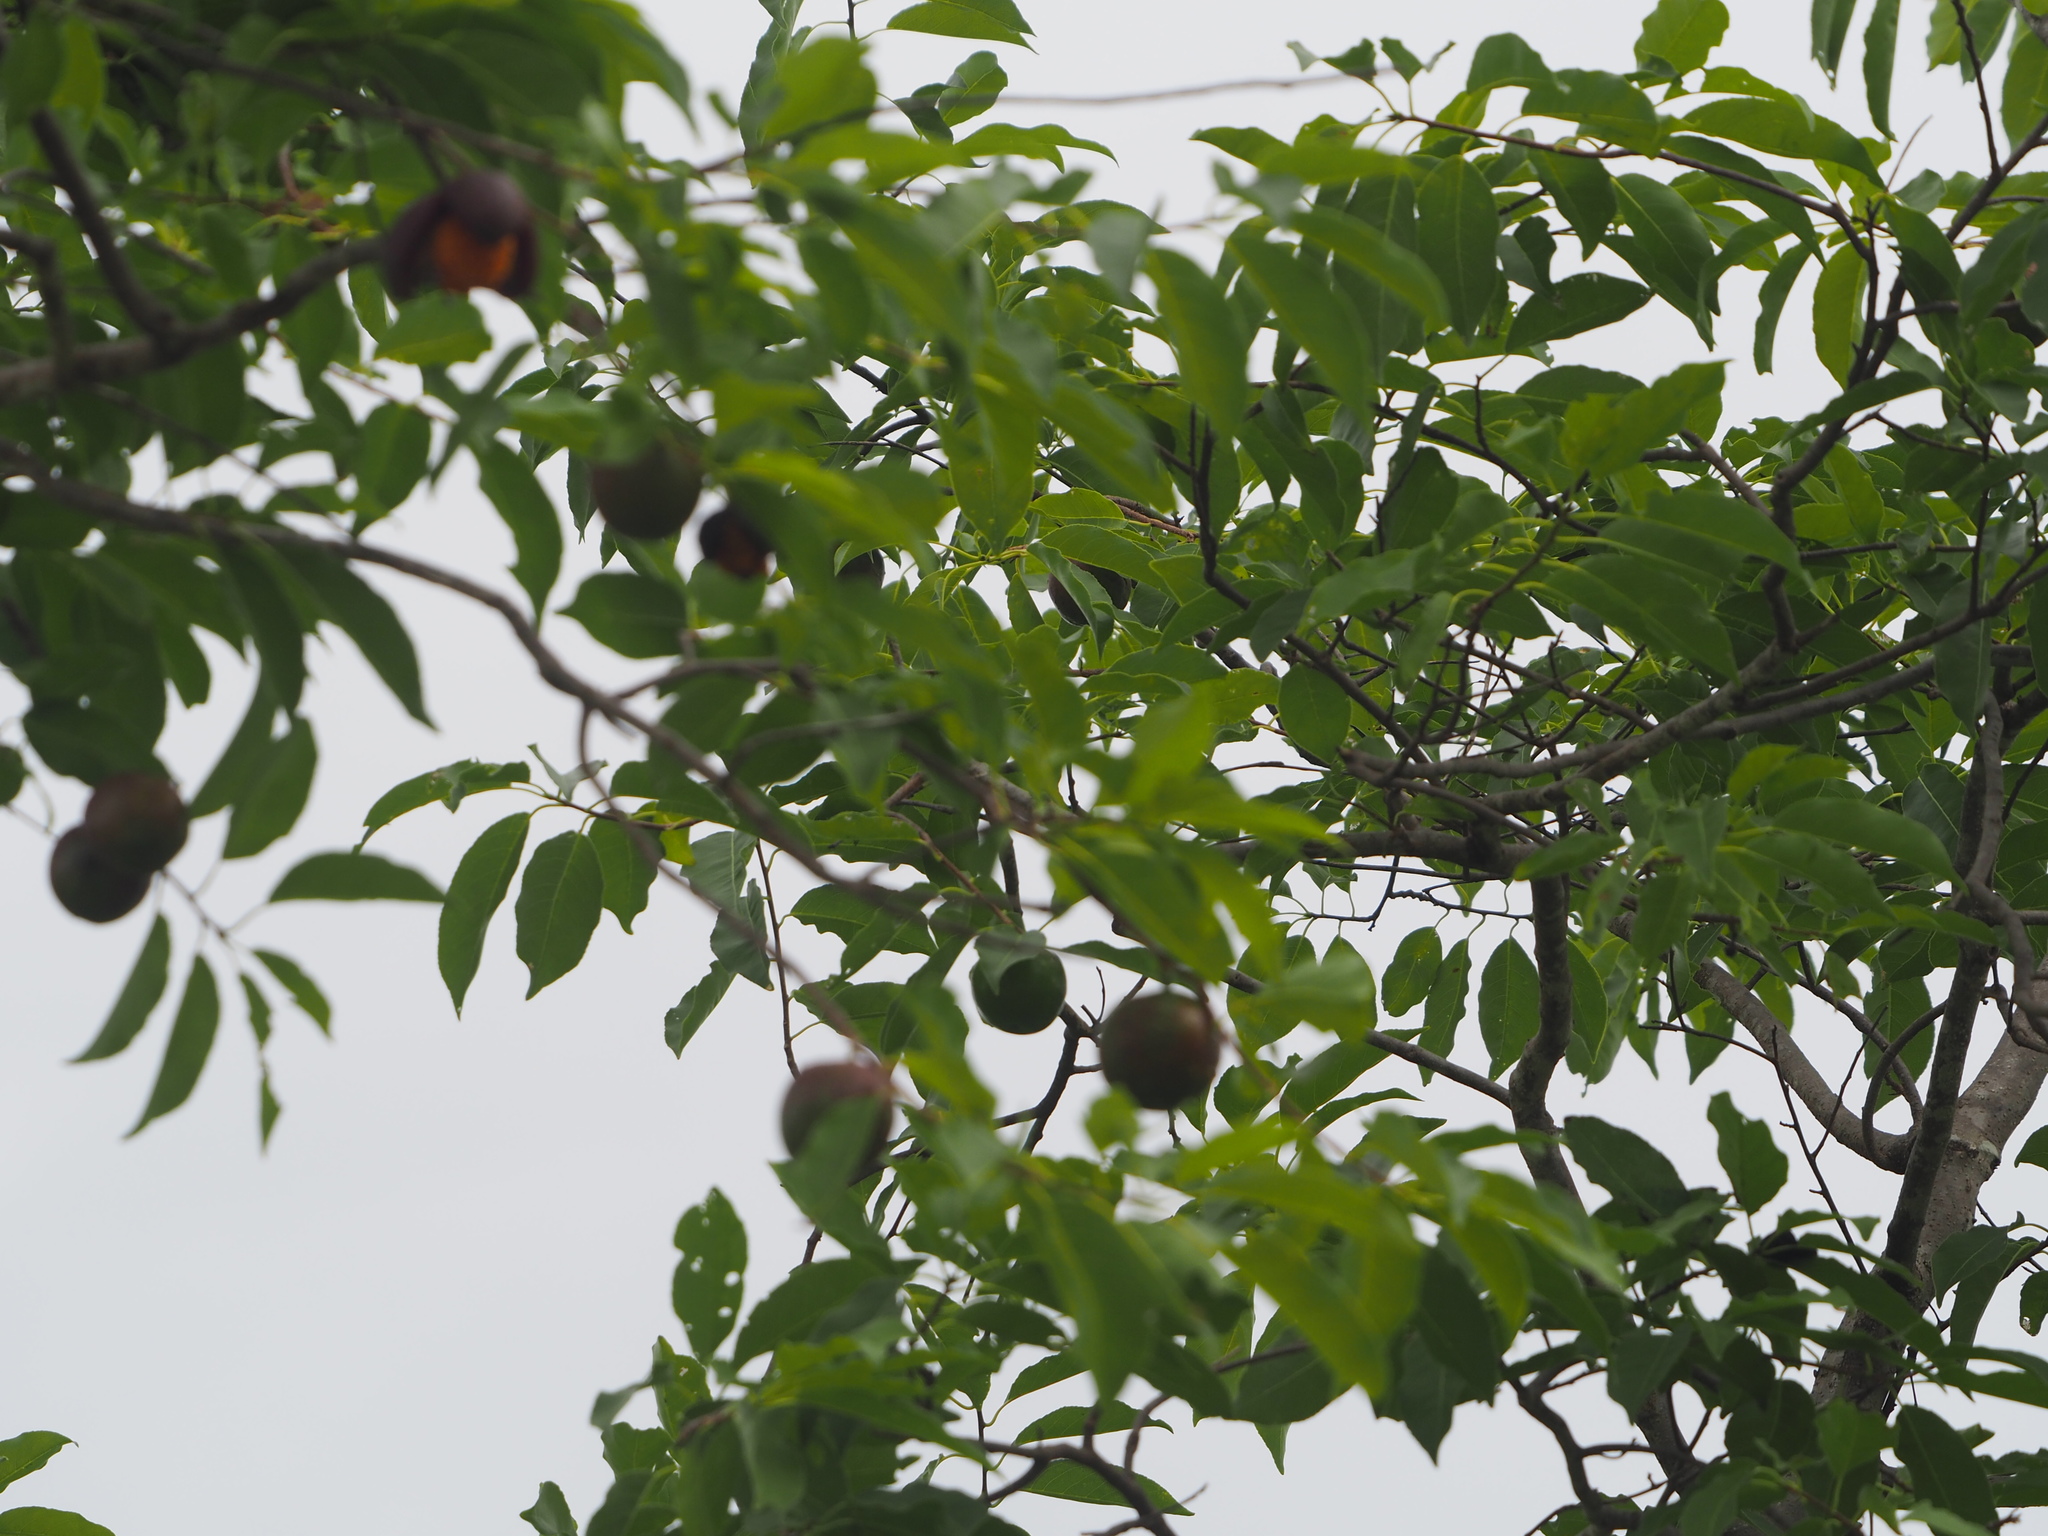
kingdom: Plantae
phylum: Tracheophyta
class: Magnoliopsida
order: Malpighiales
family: Salicaceae
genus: Casearia
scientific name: Casearia tremula
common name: Jumbie guava
